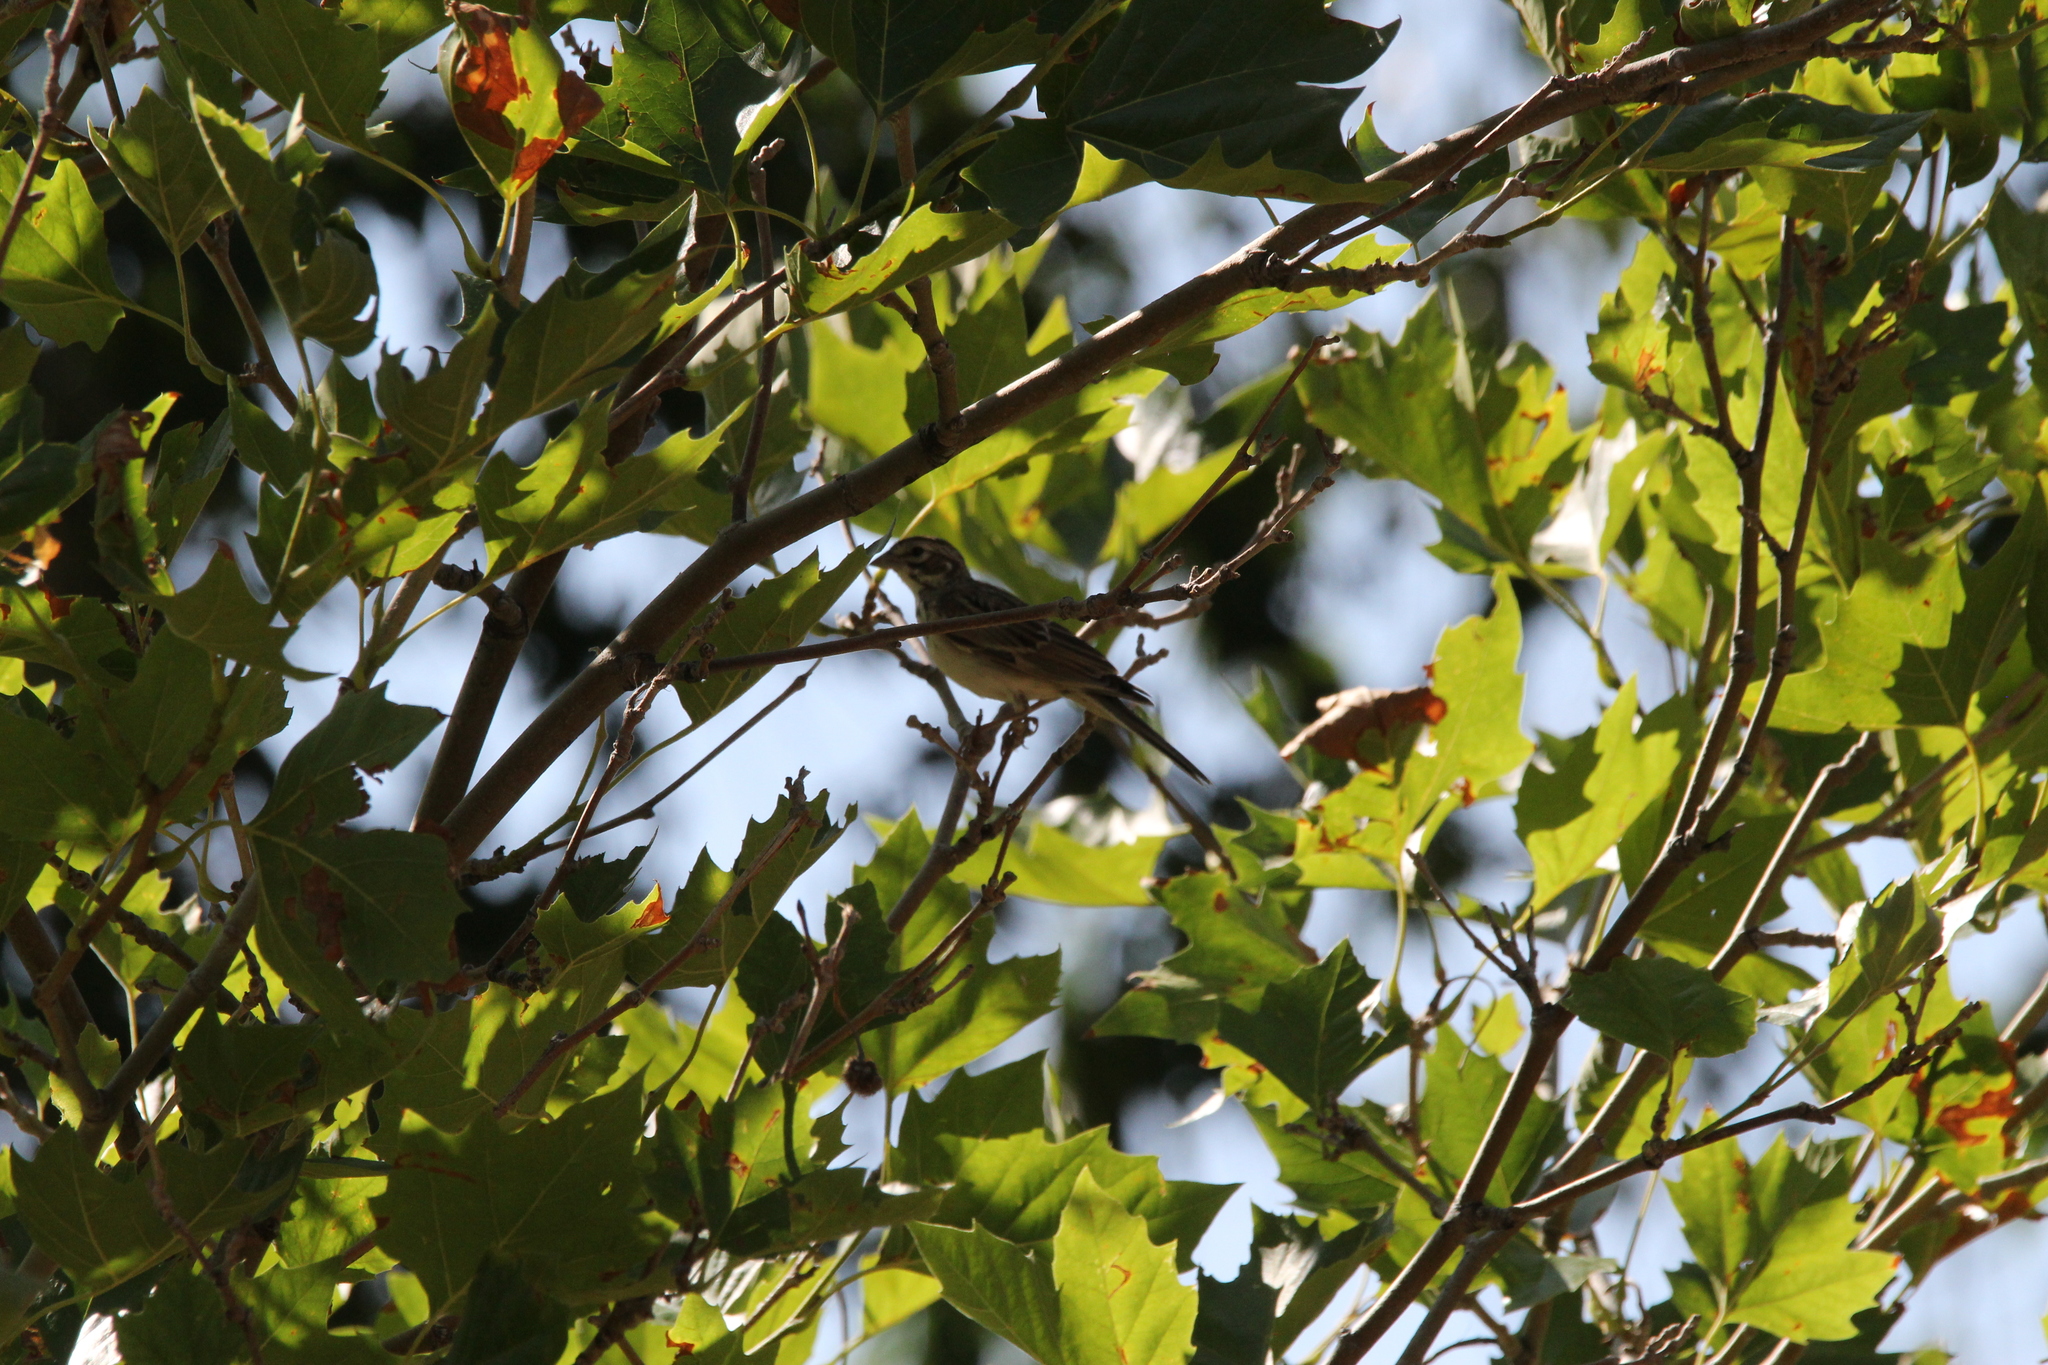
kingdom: Animalia
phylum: Chordata
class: Aves
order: Passeriformes
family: Passerellidae
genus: Chondestes
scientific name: Chondestes grammacus
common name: Lark sparrow
